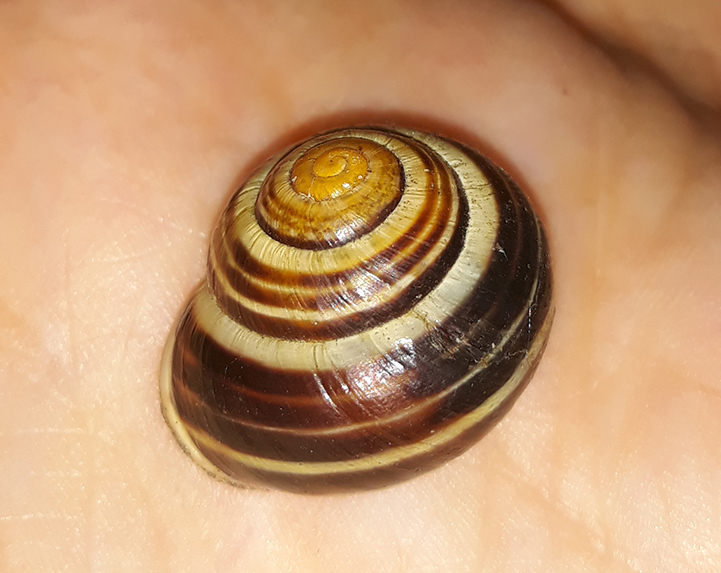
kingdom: Animalia
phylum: Mollusca
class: Gastropoda
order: Stylommatophora
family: Helicidae
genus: Cepaea
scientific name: Cepaea hortensis
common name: White-lip gardensnail
